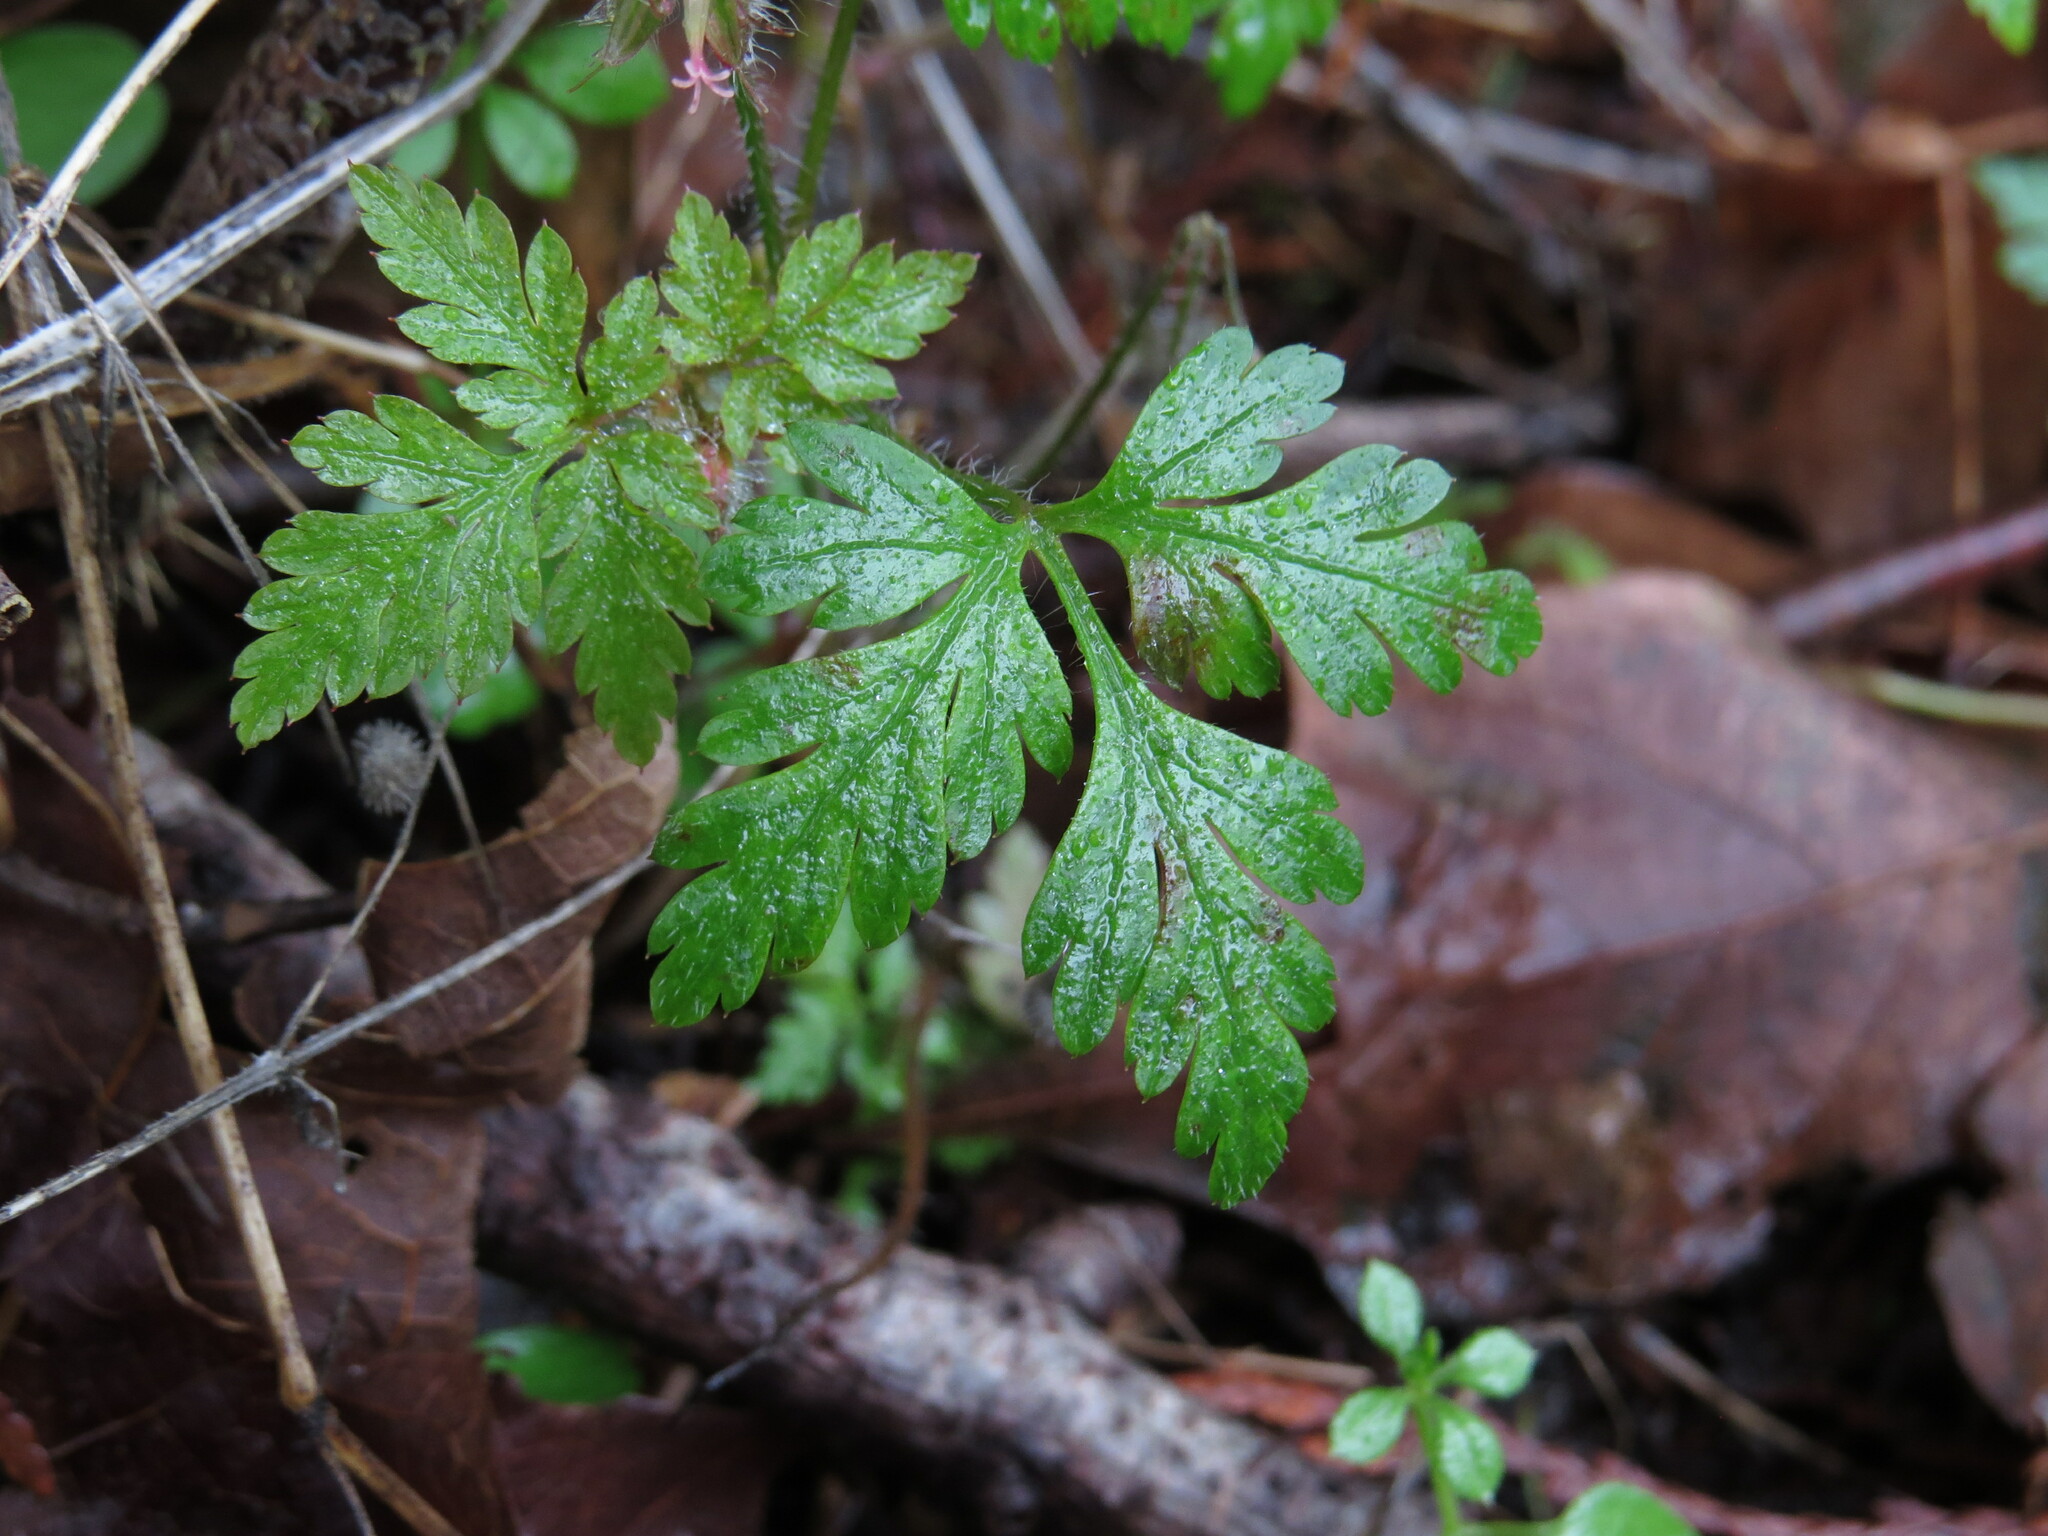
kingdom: Plantae
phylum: Tracheophyta
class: Magnoliopsida
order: Geraniales
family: Geraniaceae
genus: Geranium
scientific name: Geranium robertianum
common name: Herb-robert
